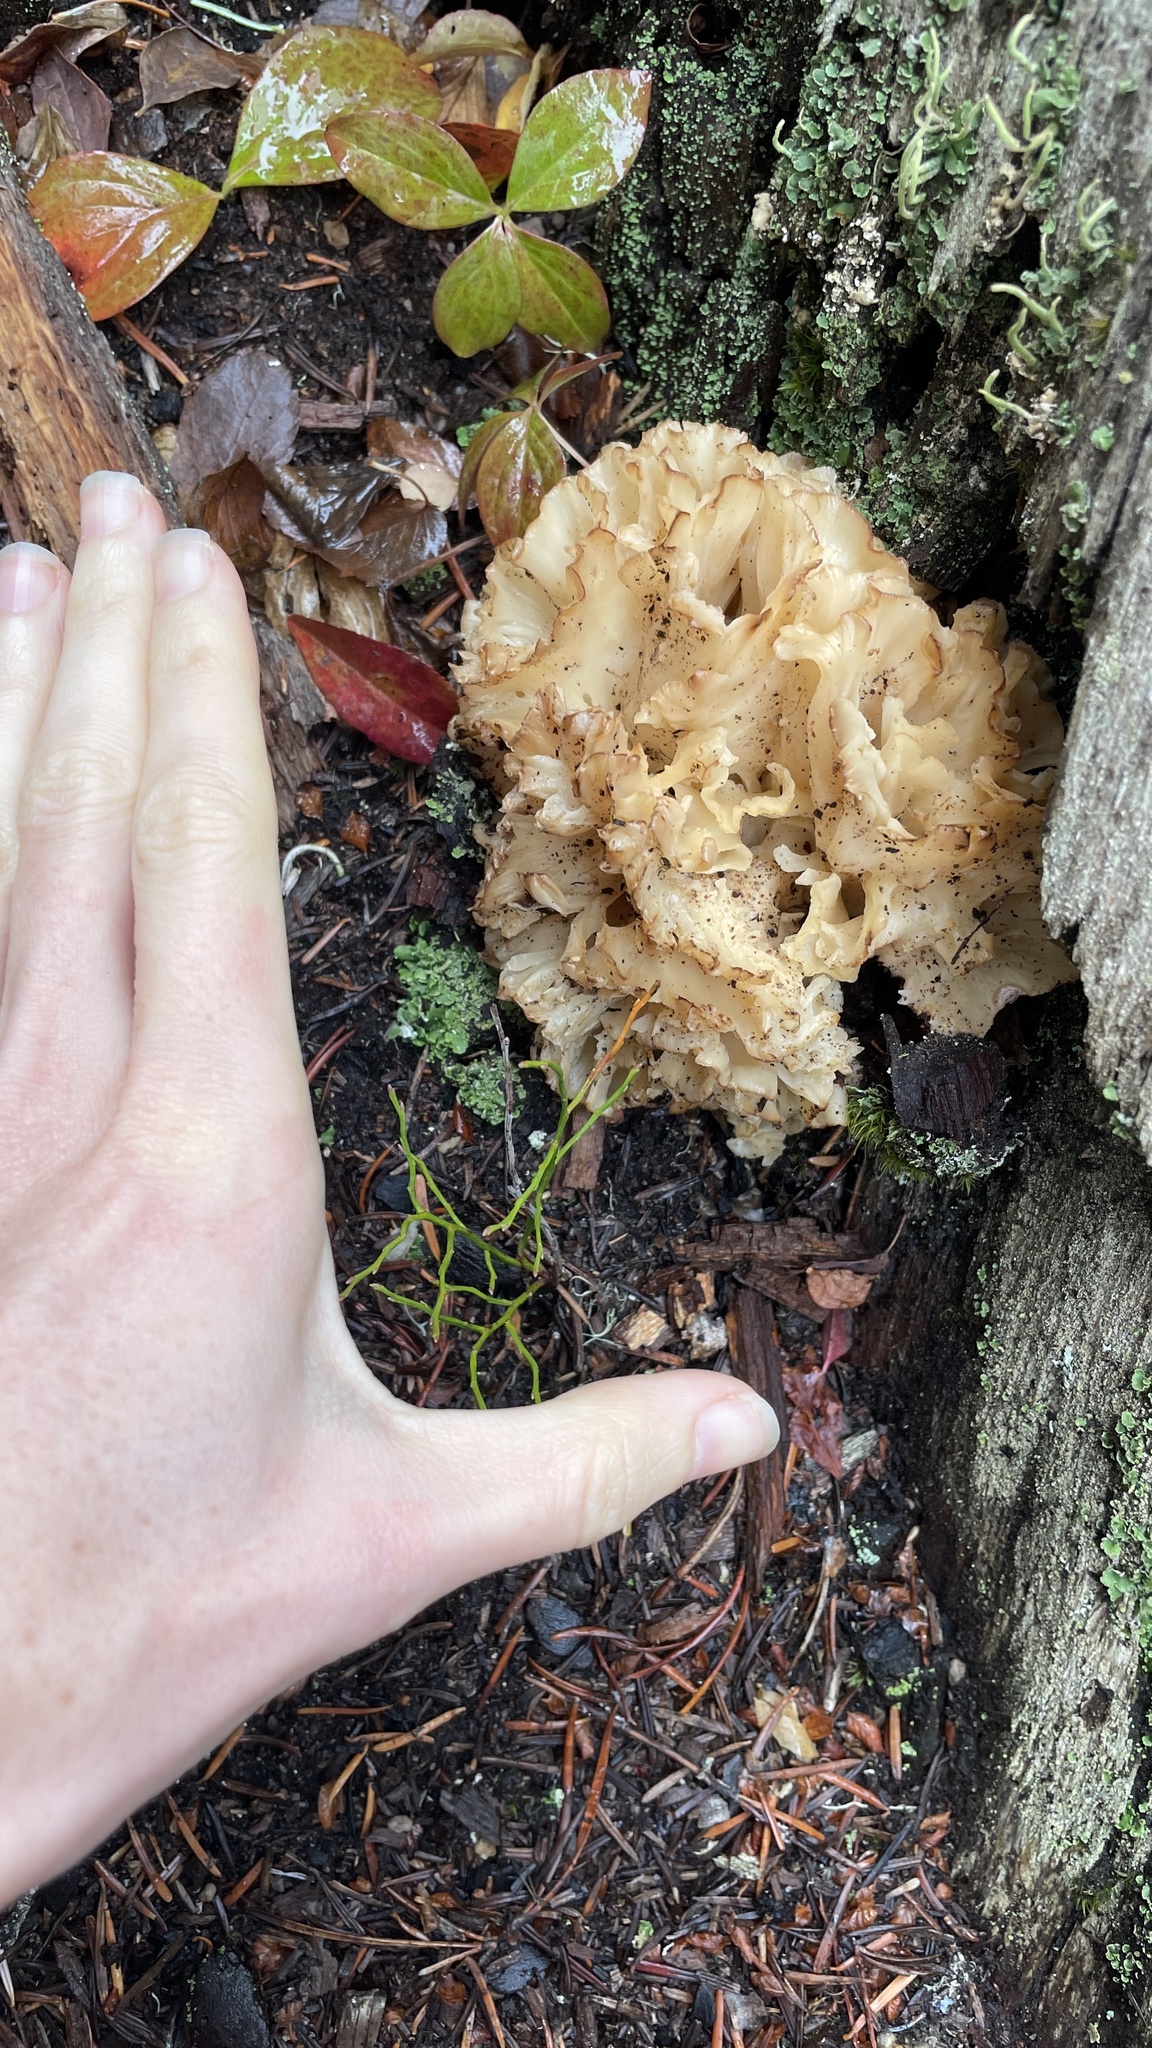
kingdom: Fungi
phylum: Basidiomycota
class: Agaricomycetes
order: Polyporales
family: Sparassidaceae
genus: Sparassis
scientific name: Sparassis radicata
